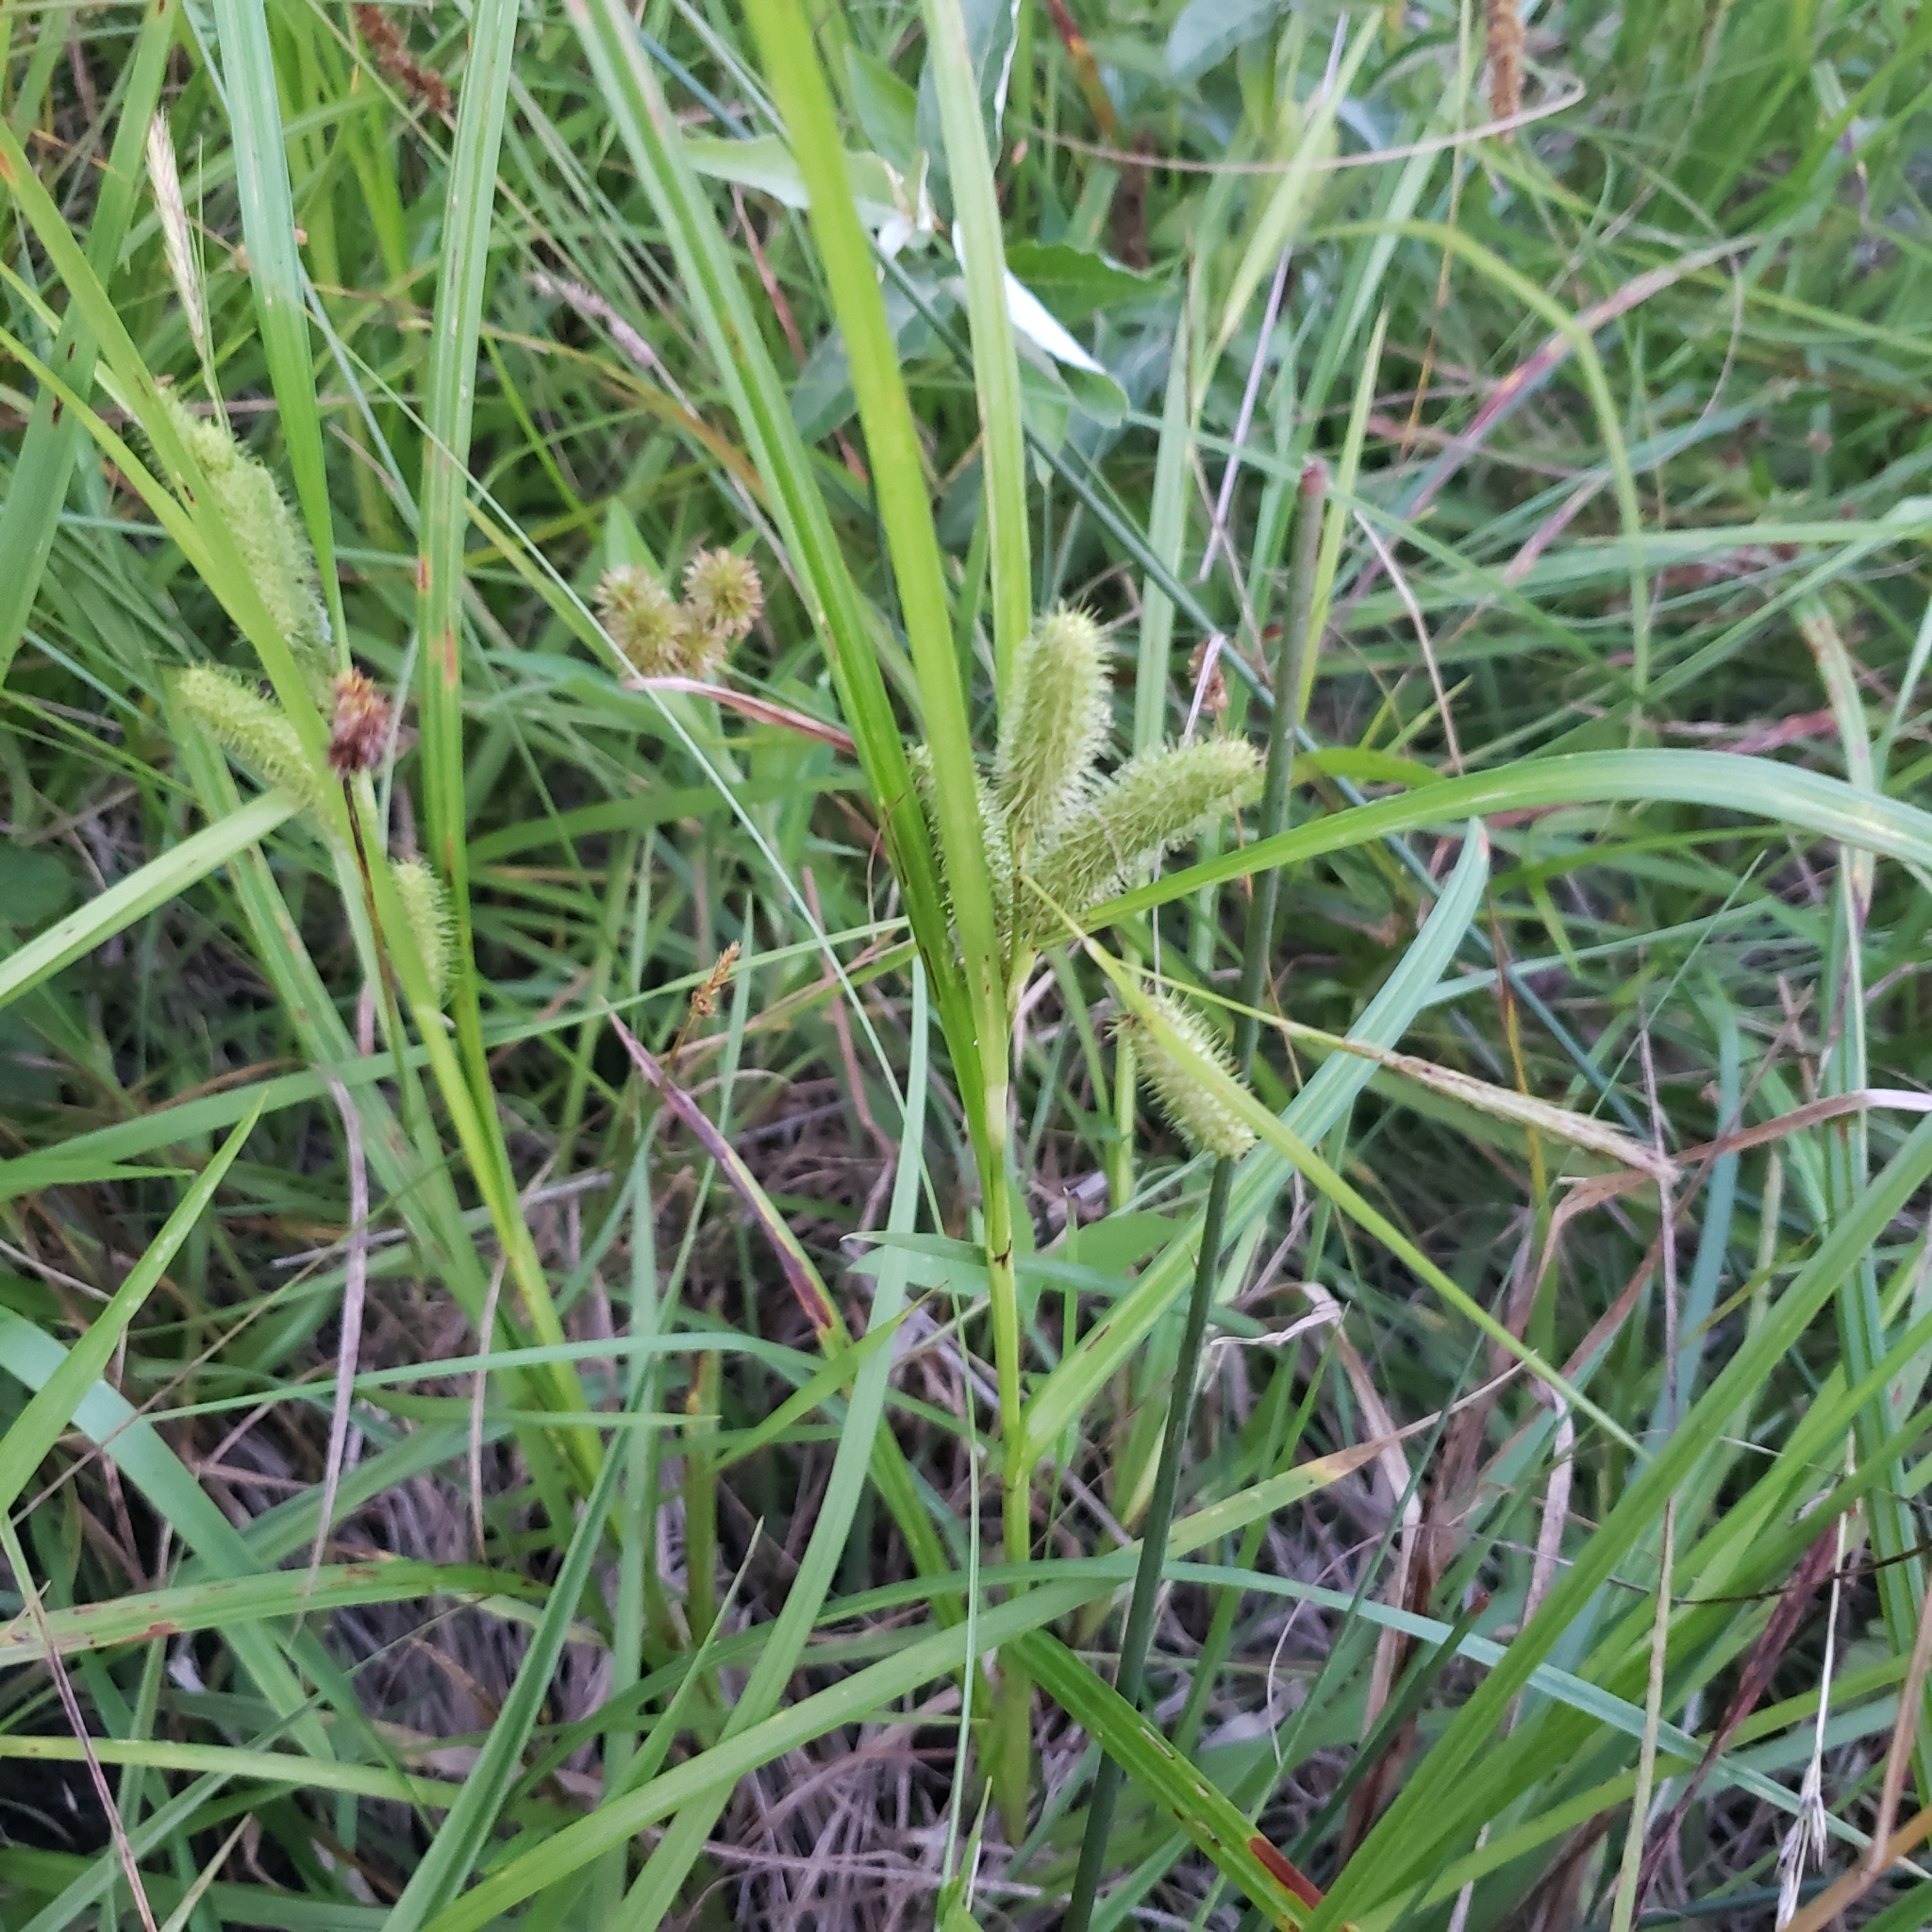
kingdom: Plantae
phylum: Tracheophyta
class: Liliopsida
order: Poales
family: Cyperaceae
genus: Carex
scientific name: Carex frankii
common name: Frank's sedge
